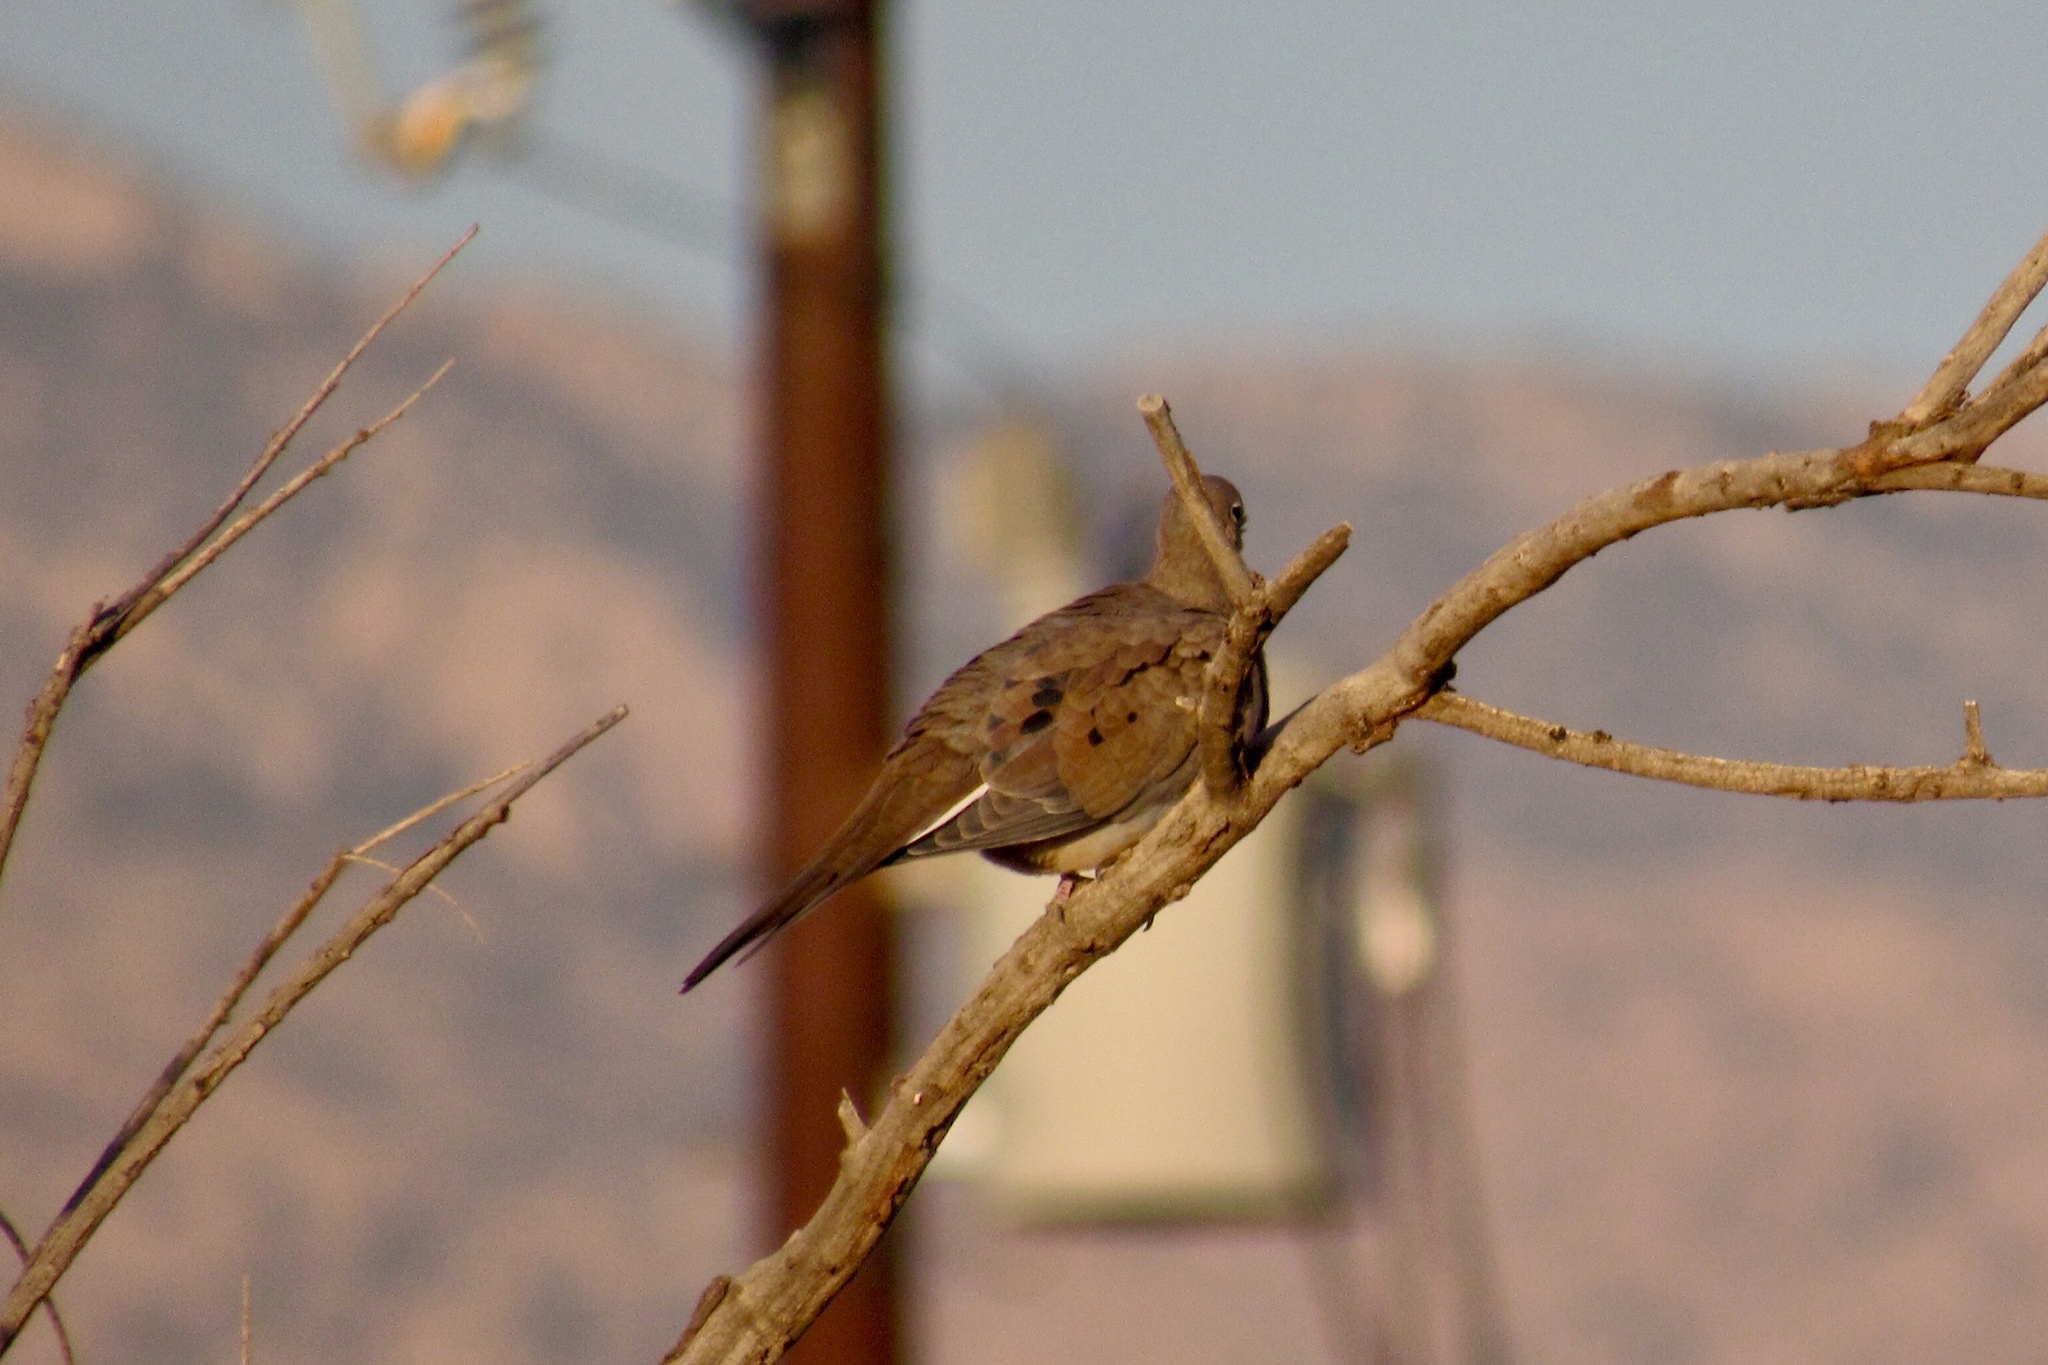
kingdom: Animalia
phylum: Chordata
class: Aves
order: Columbiformes
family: Columbidae
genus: Zenaida
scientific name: Zenaida macroura
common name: Mourning dove
